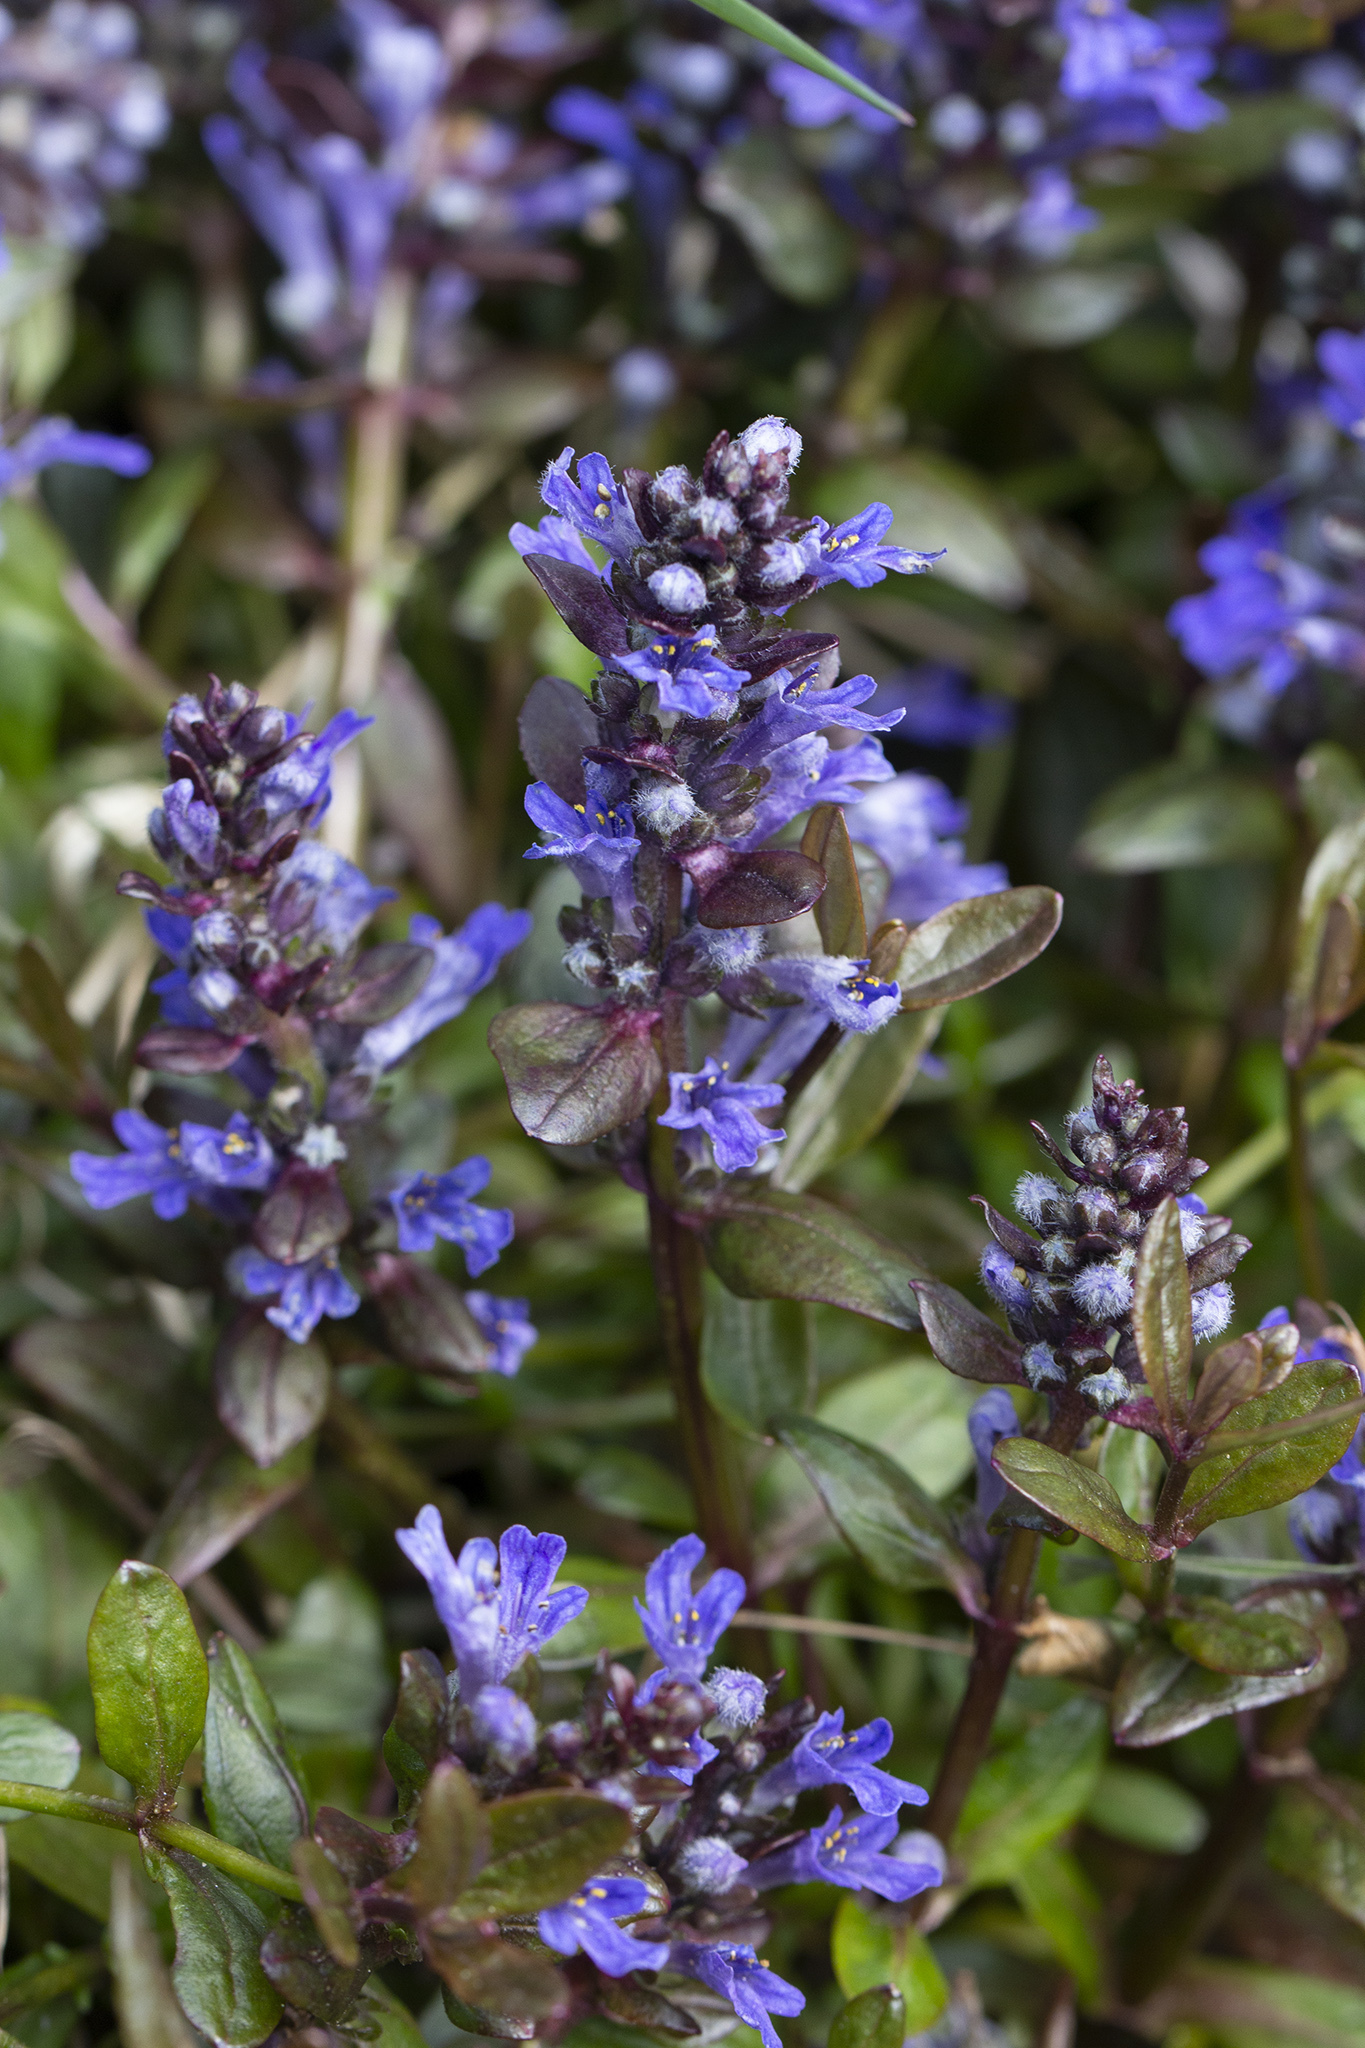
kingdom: Plantae
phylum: Tracheophyta
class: Magnoliopsida
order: Lamiales
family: Lamiaceae
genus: Ajuga
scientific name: Ajuga reptans
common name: Bugle
